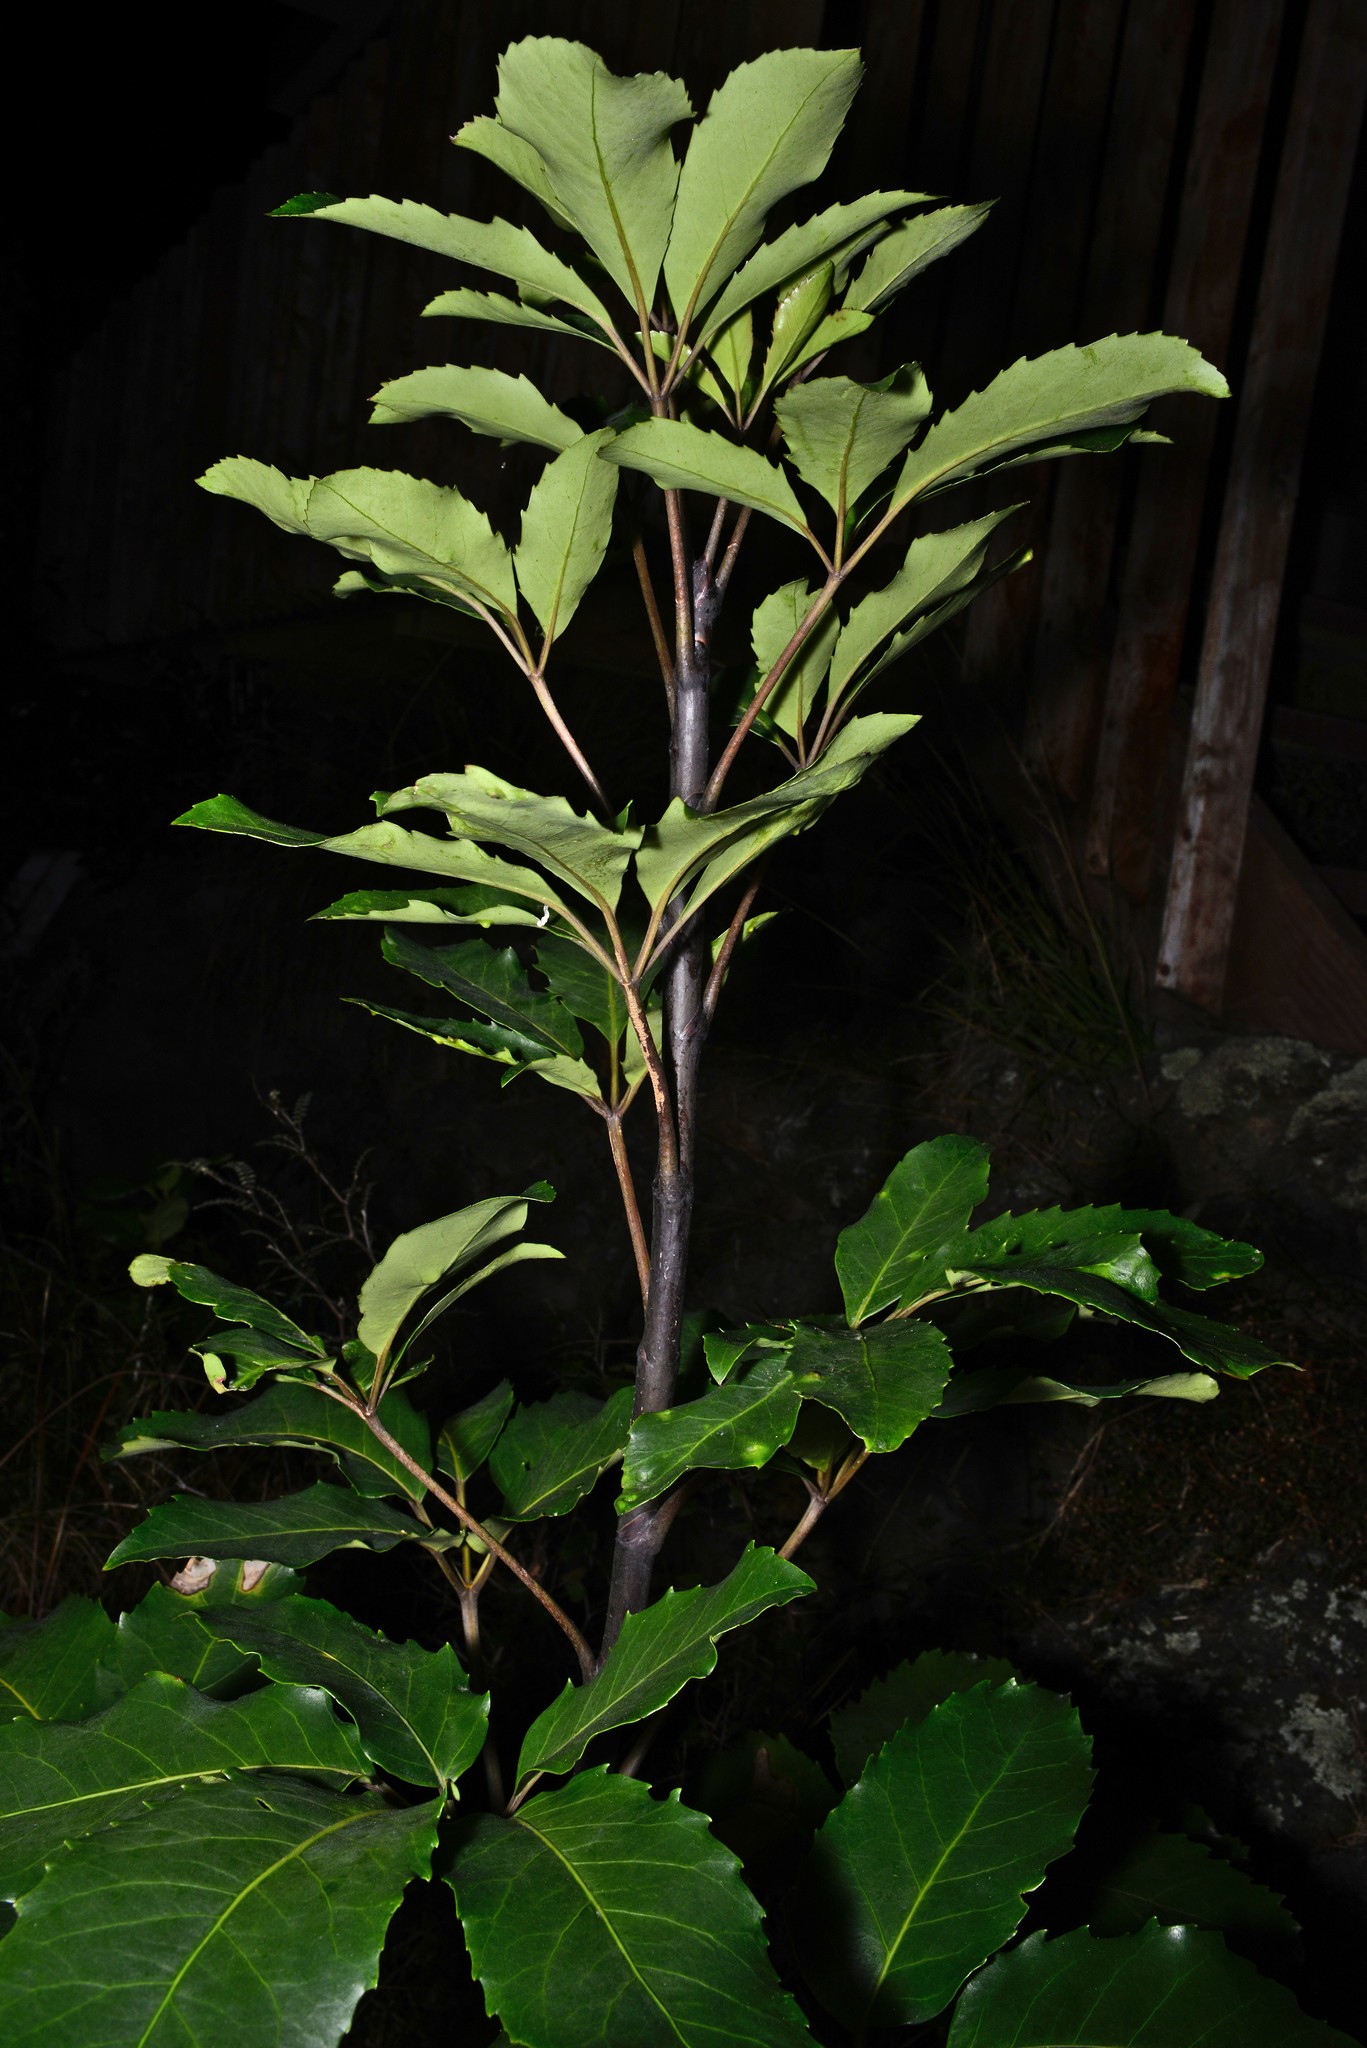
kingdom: Plantae
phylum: Tracheophyta
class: Magnoliopsida
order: Apiales
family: Araliaceae
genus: Neopanax
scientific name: Neopanax arboreus
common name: Five-fingers
